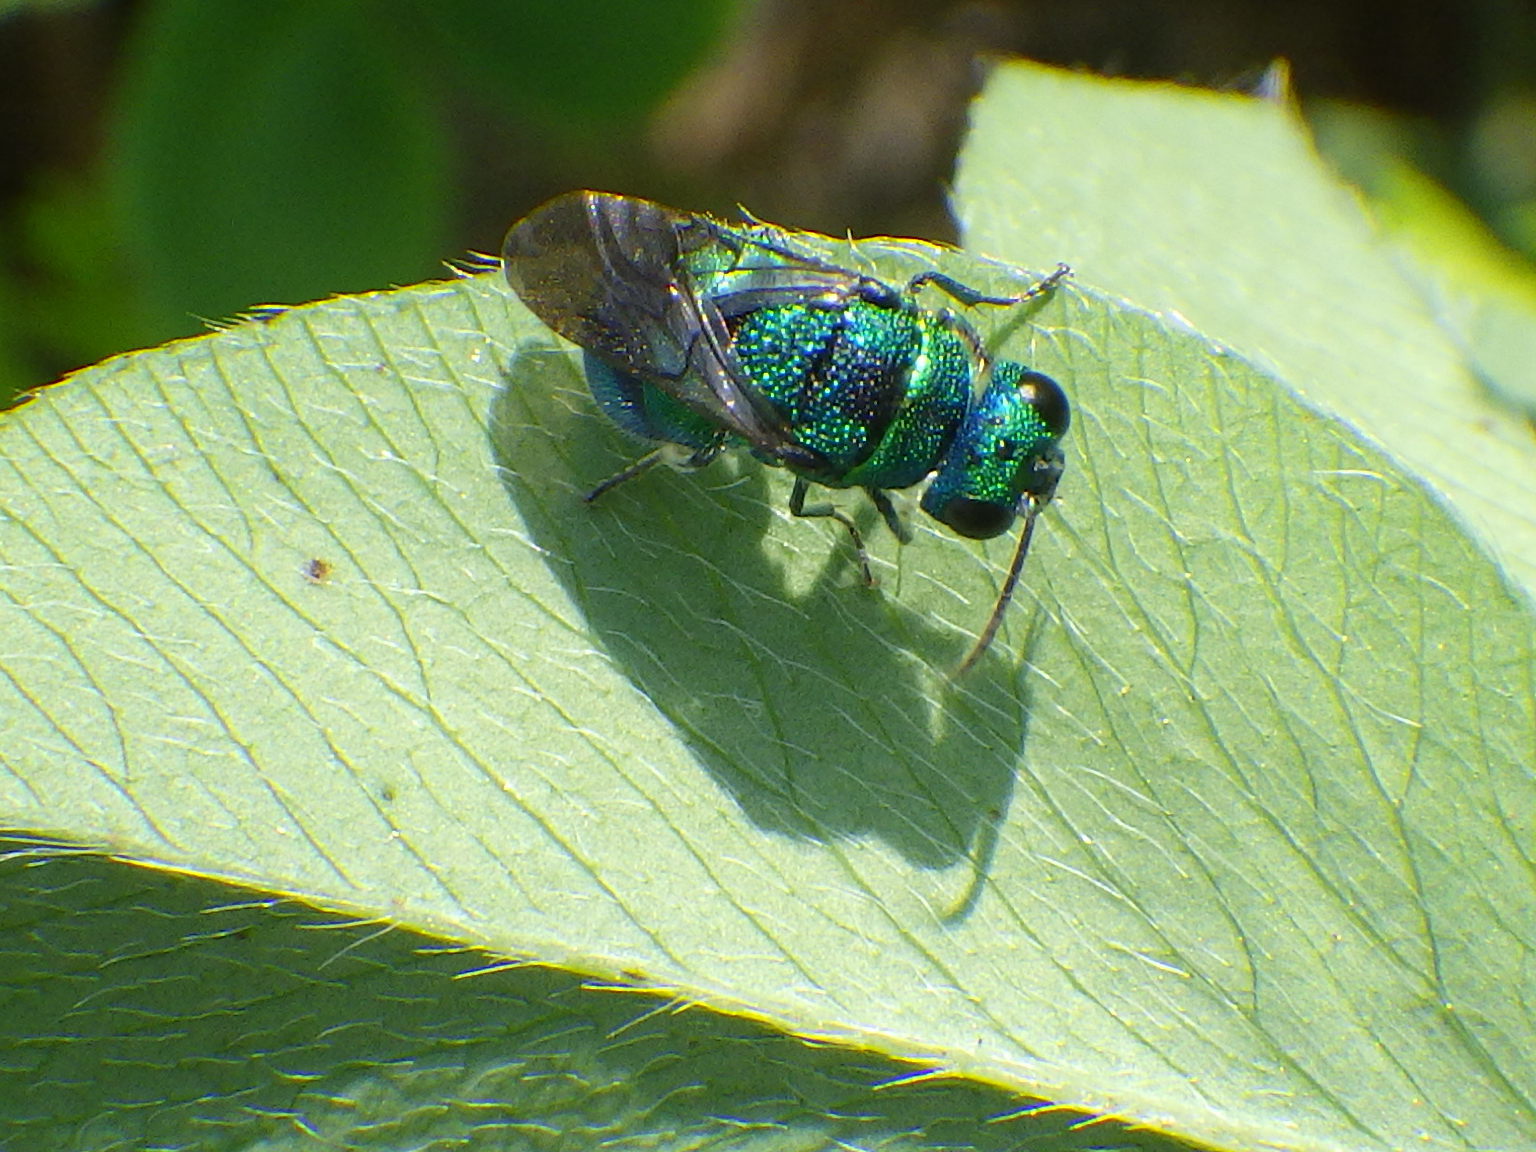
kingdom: Animalia
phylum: Arthropoda
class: Insecta
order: Hymenoptera
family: Chrysididae
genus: Holopyga
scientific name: Holopyga
